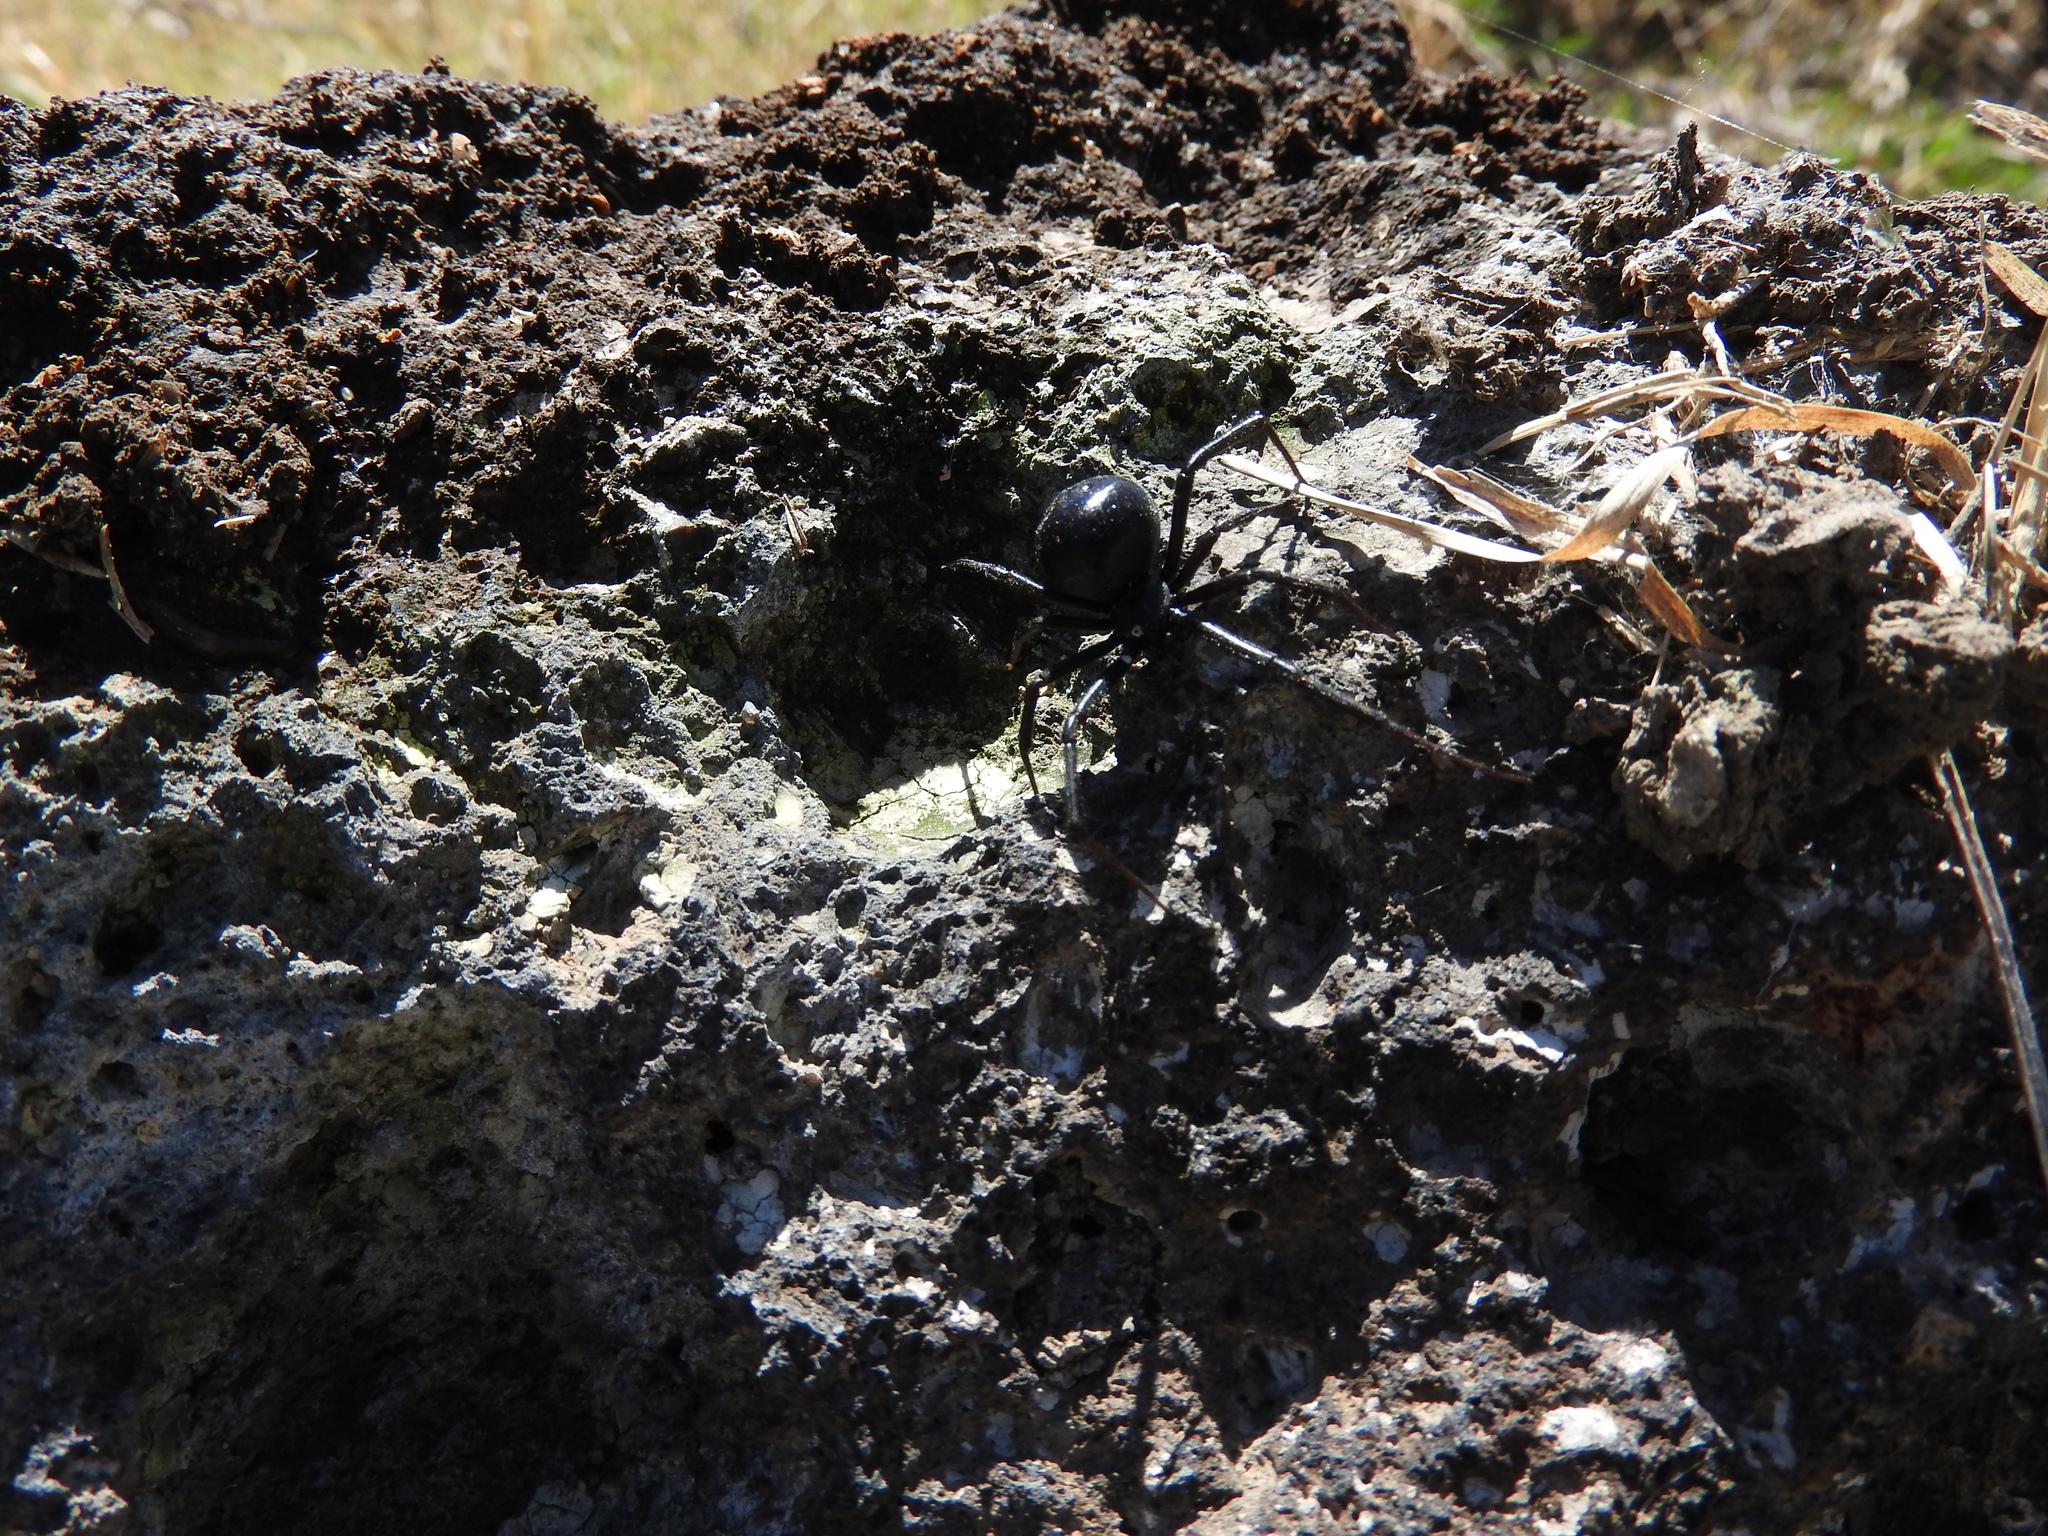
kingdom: Animalia
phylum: Arthropoda
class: Arachnida
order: Araneae
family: Theridiidae
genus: Latrodectus
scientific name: Latrodectus mactans
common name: Cobweb spiders
